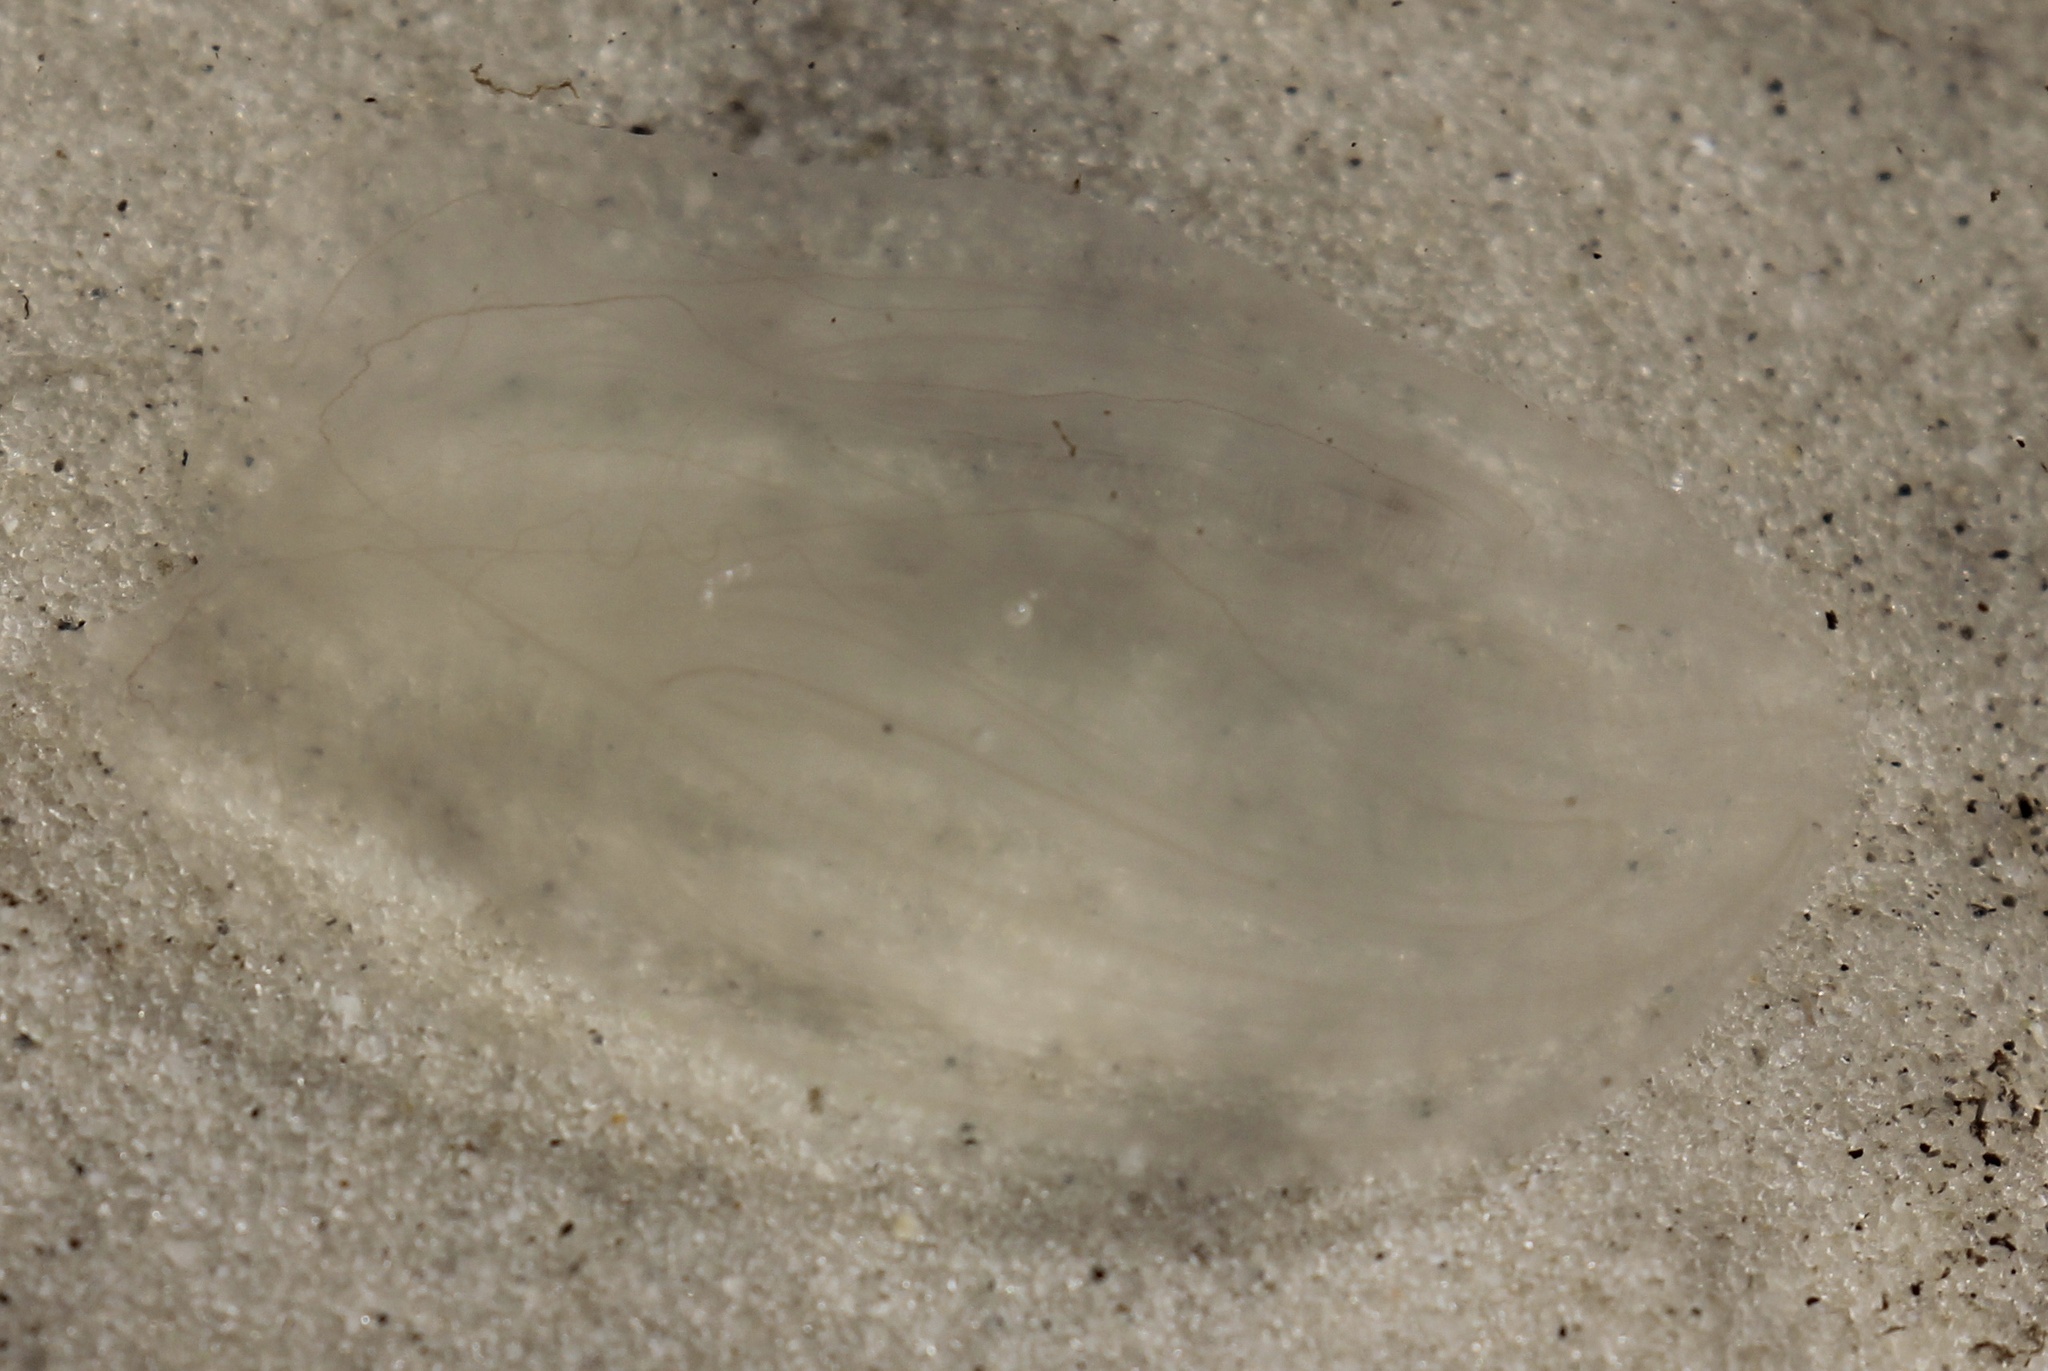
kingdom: Animalia
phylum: Ctenophora
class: Tentaculata
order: Lobata
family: Bolinopsidae
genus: Mnemiopsis
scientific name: Mnemiopsis leidyi
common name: American comb jelly
